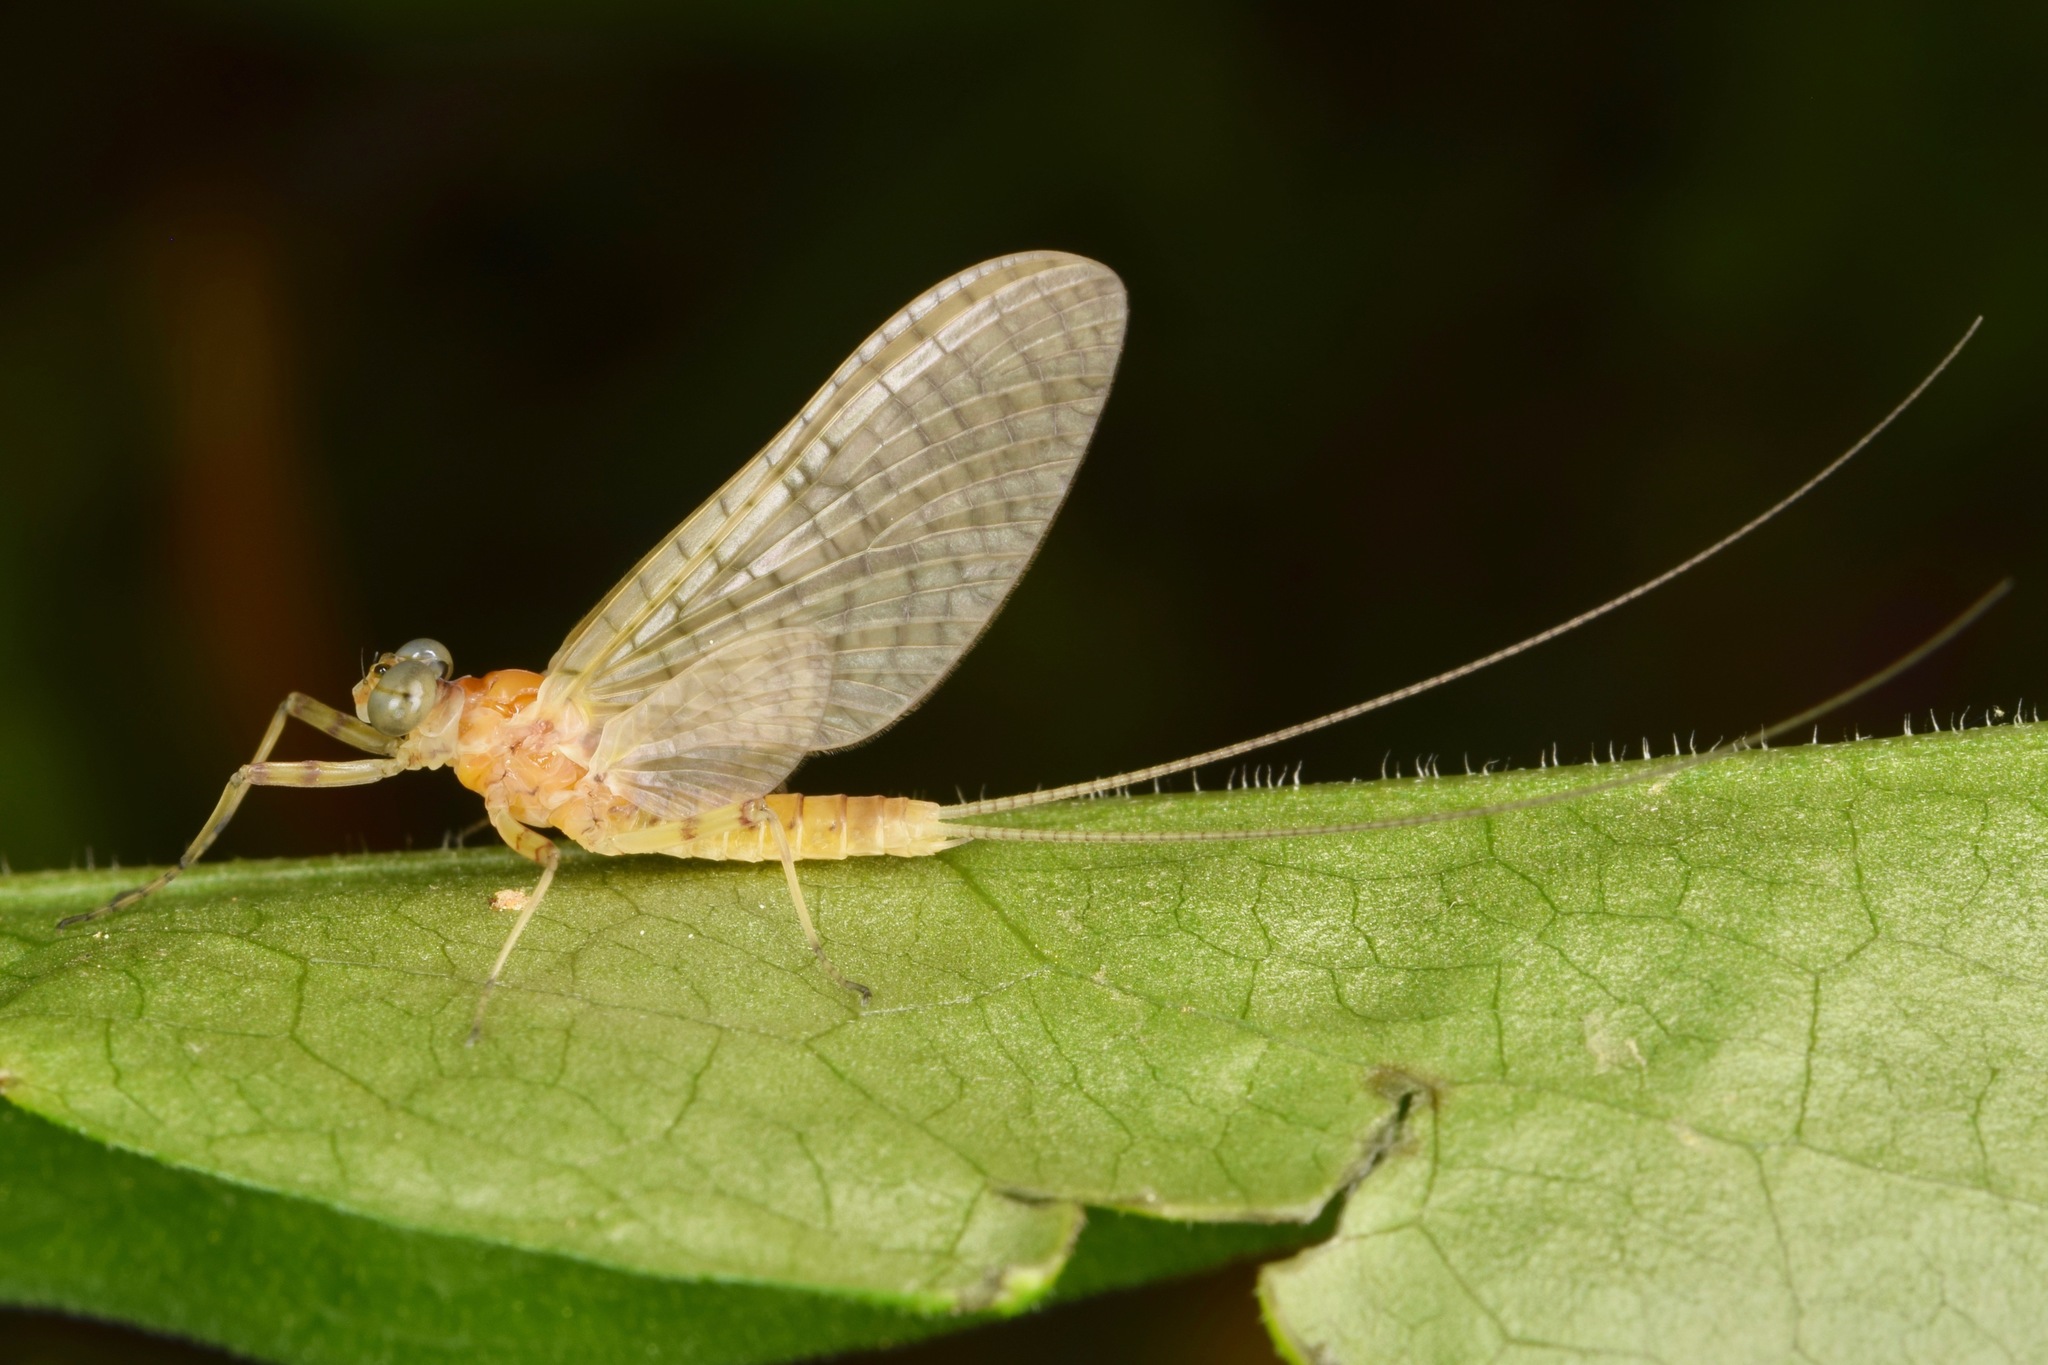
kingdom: Animalia
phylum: Arthropoda
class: Insecta
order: Ephemeroptera
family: Heptageniidae
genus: Maccaffertium
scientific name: Maccaffertium mediopunctatum
